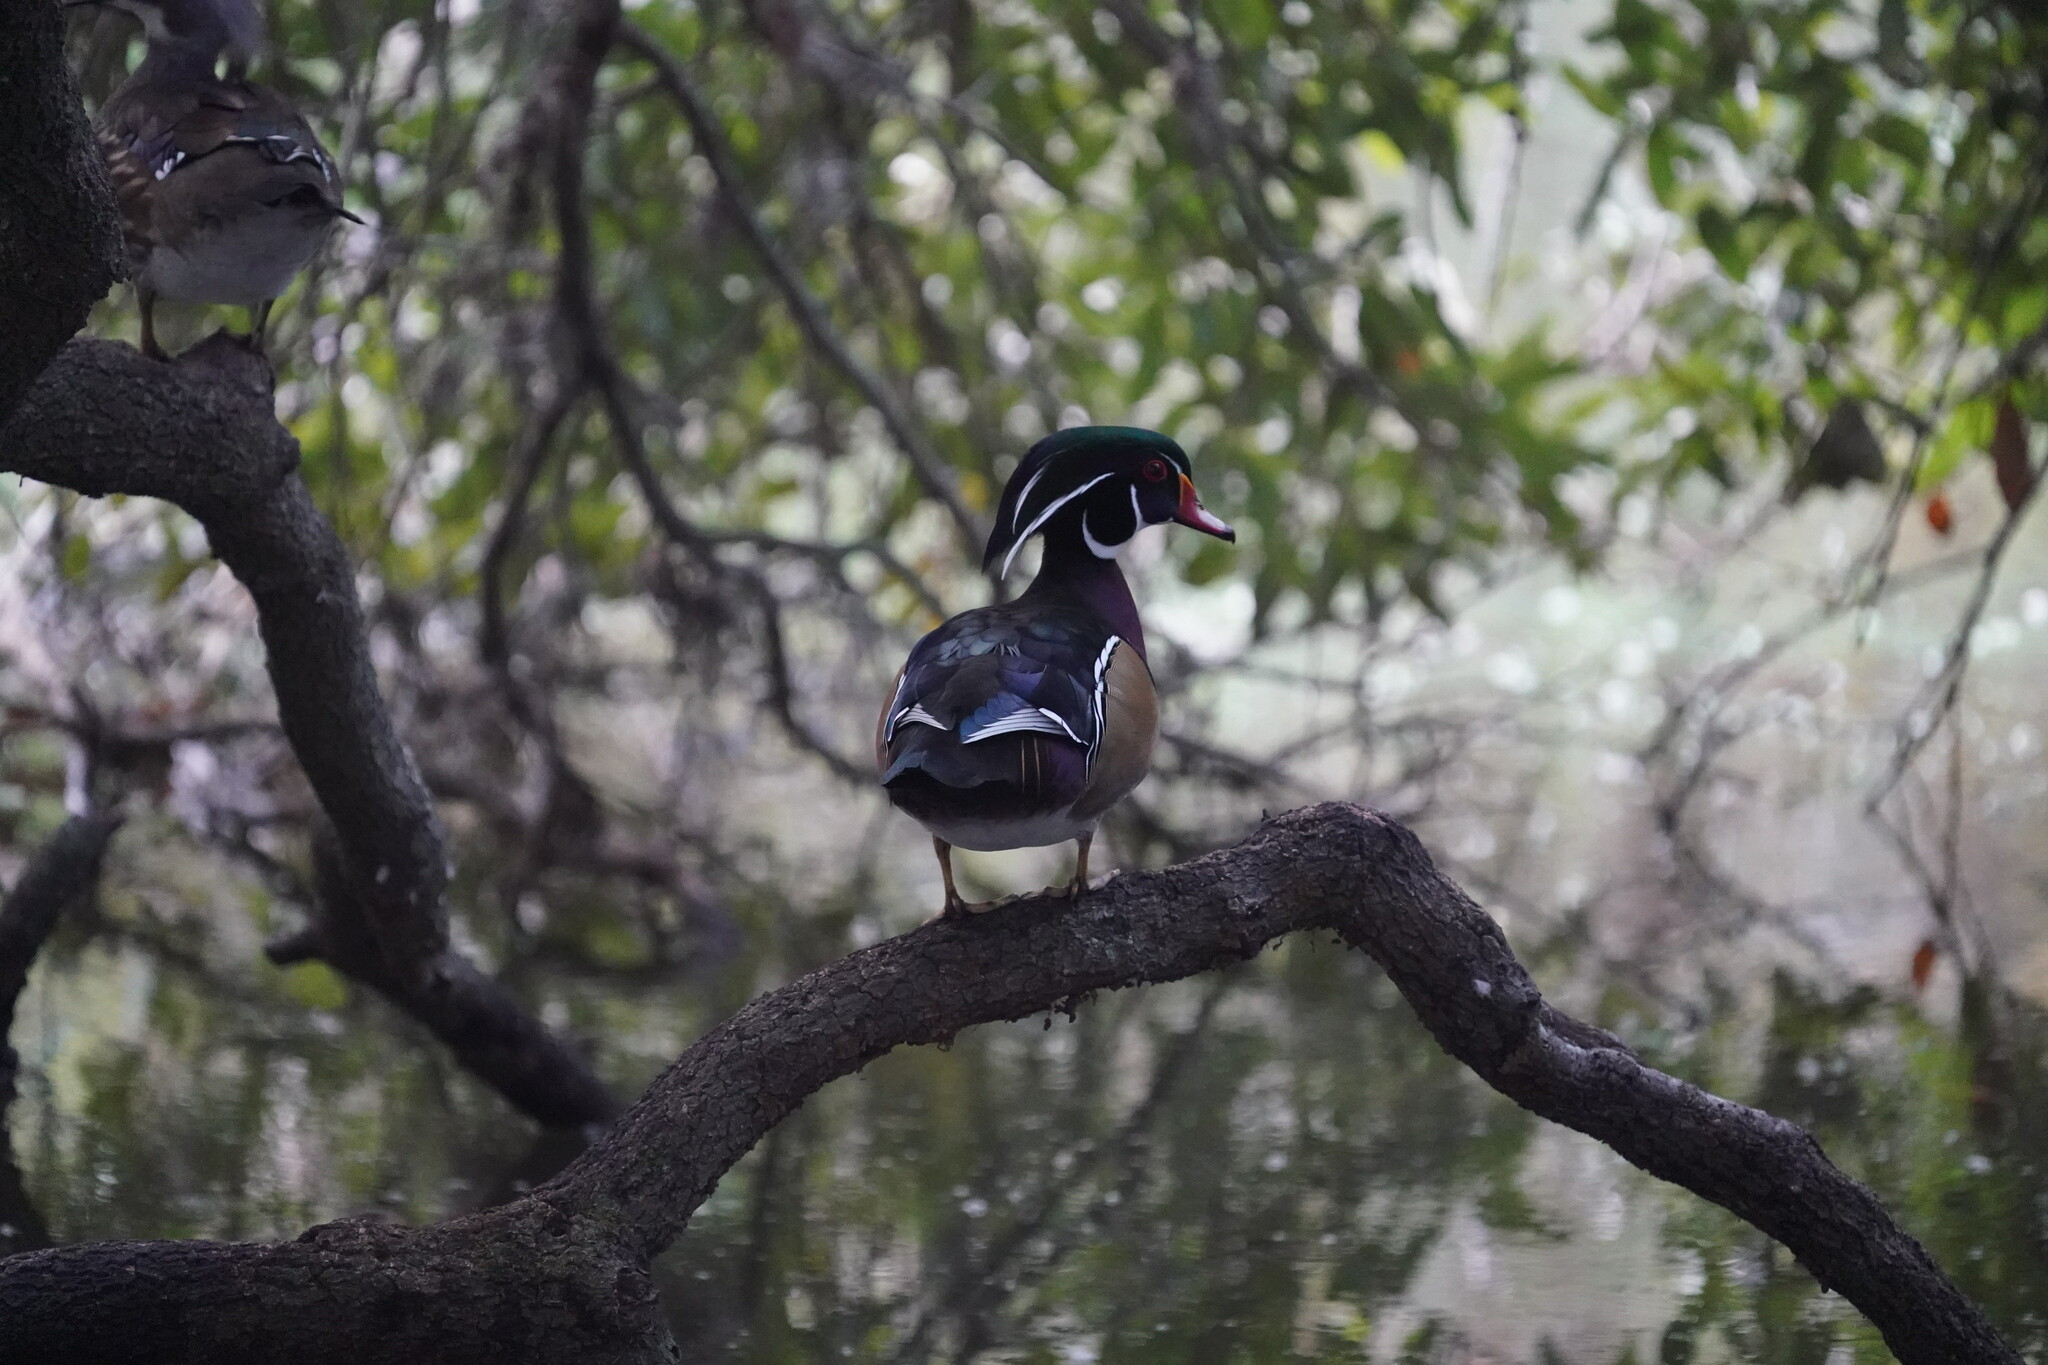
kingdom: Animalia
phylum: Chordata
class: Aves
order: Anseriformes
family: Anatidae
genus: Aix
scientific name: Aix sponsa
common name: Wood duck
